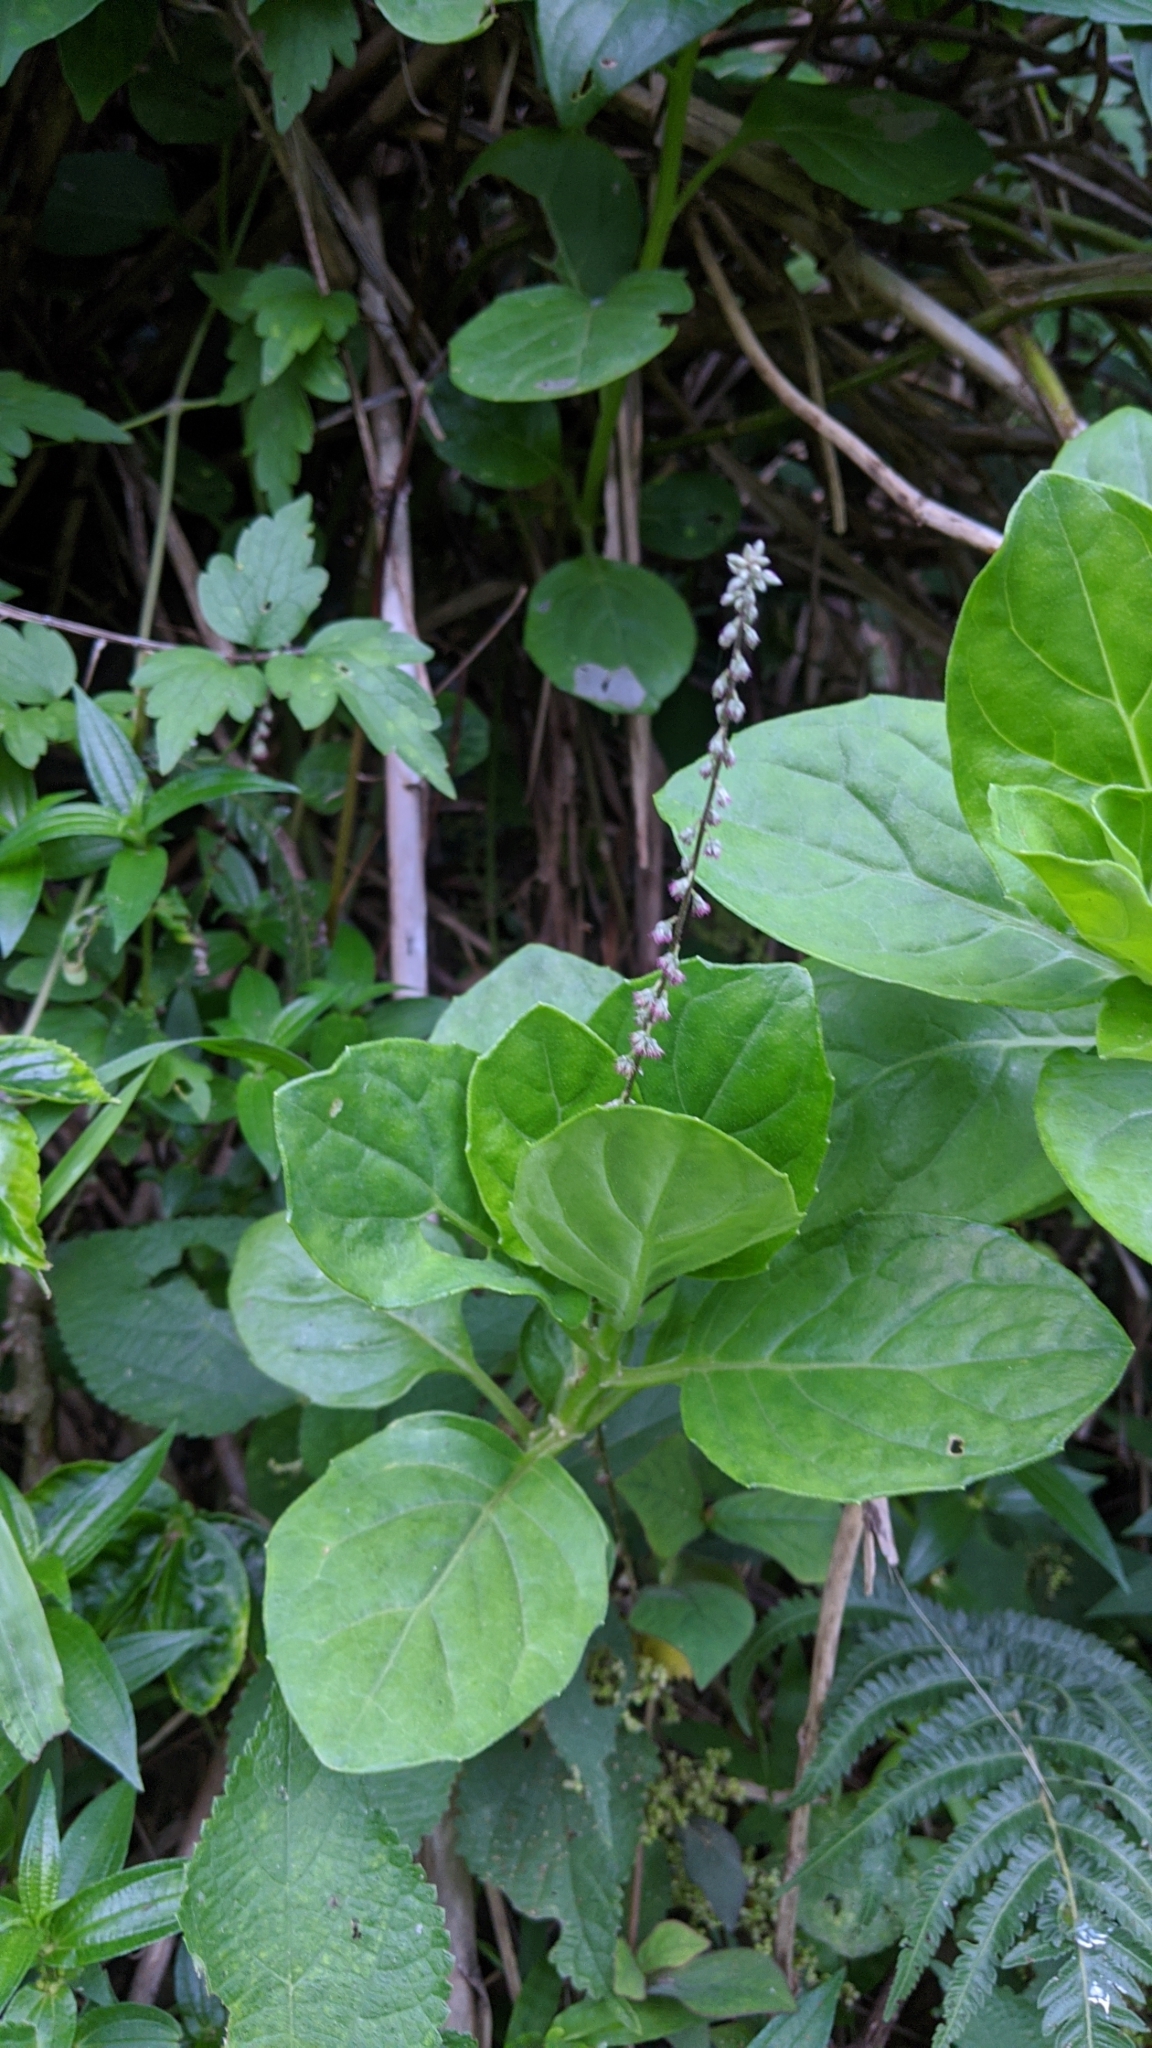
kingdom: Plantae
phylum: Tracheophyta
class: Magnoliopsida
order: Asterales
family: Asteraceae
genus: Gynura
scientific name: Gynura elliptica
